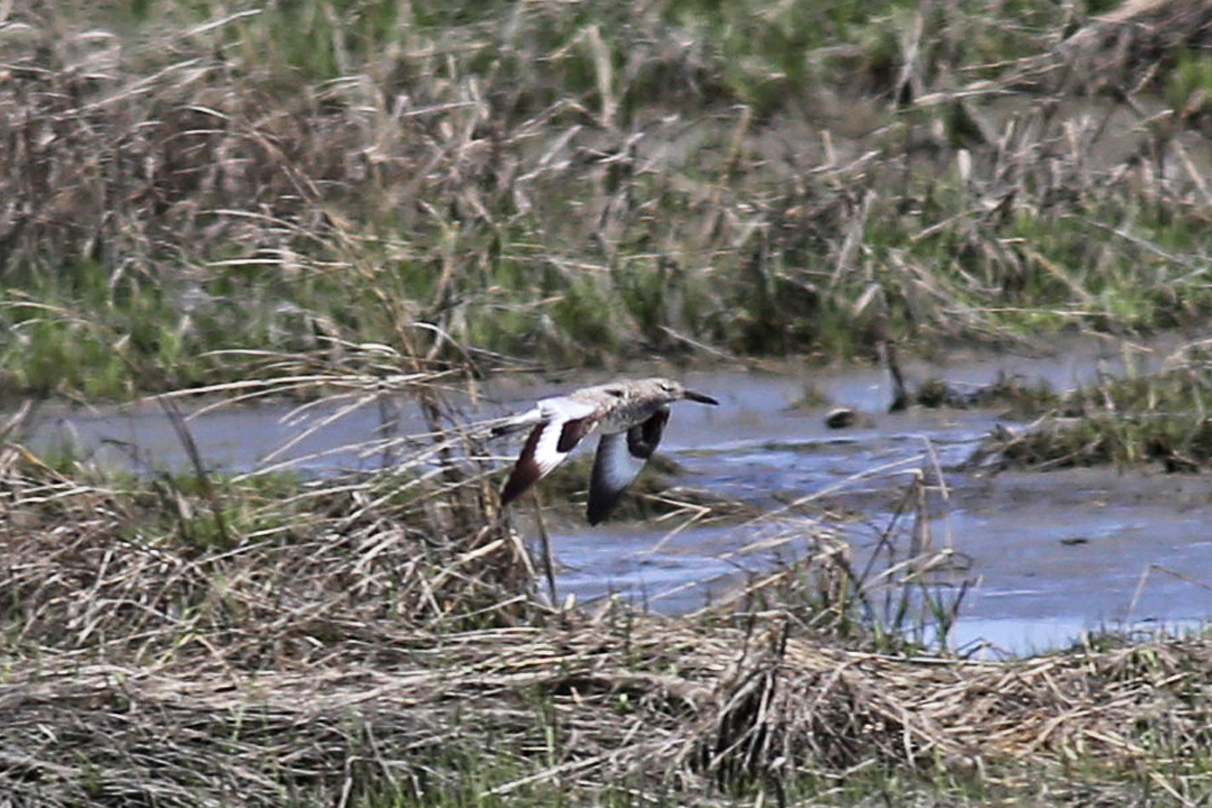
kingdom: Animalia
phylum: Chordata
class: Aves
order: Charadriiformes
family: Scolopacidae
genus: Tringa
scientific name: Tringa semipalmata
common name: Willet
